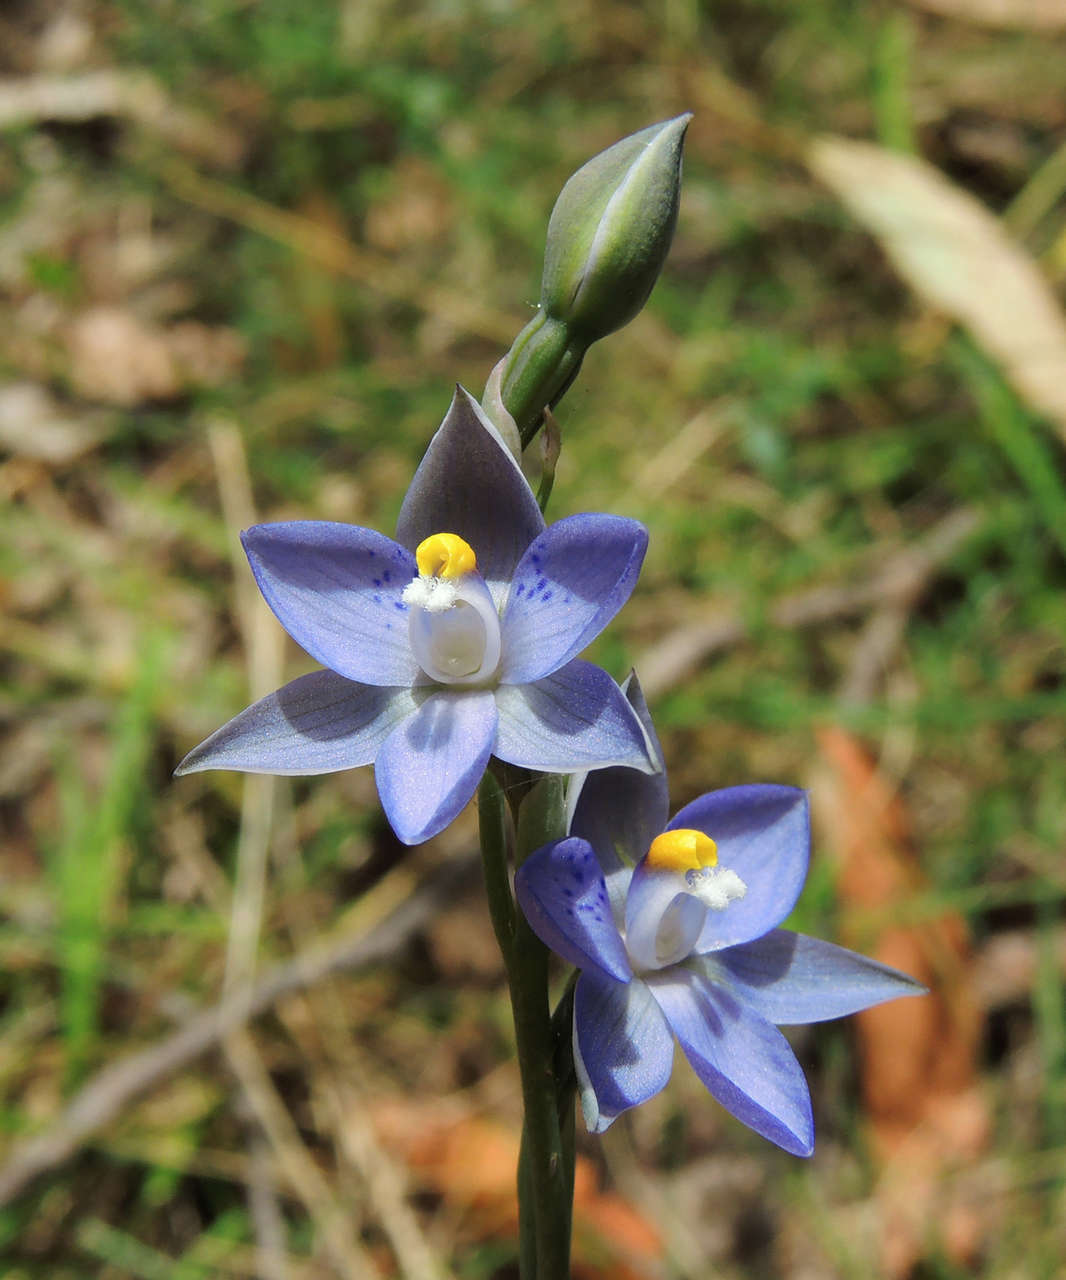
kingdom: Plantae
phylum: Tracheophyta
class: Liliopsida
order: Asparagales
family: Orchidaceae
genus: Thelymitra
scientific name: Thelymitra truncata
